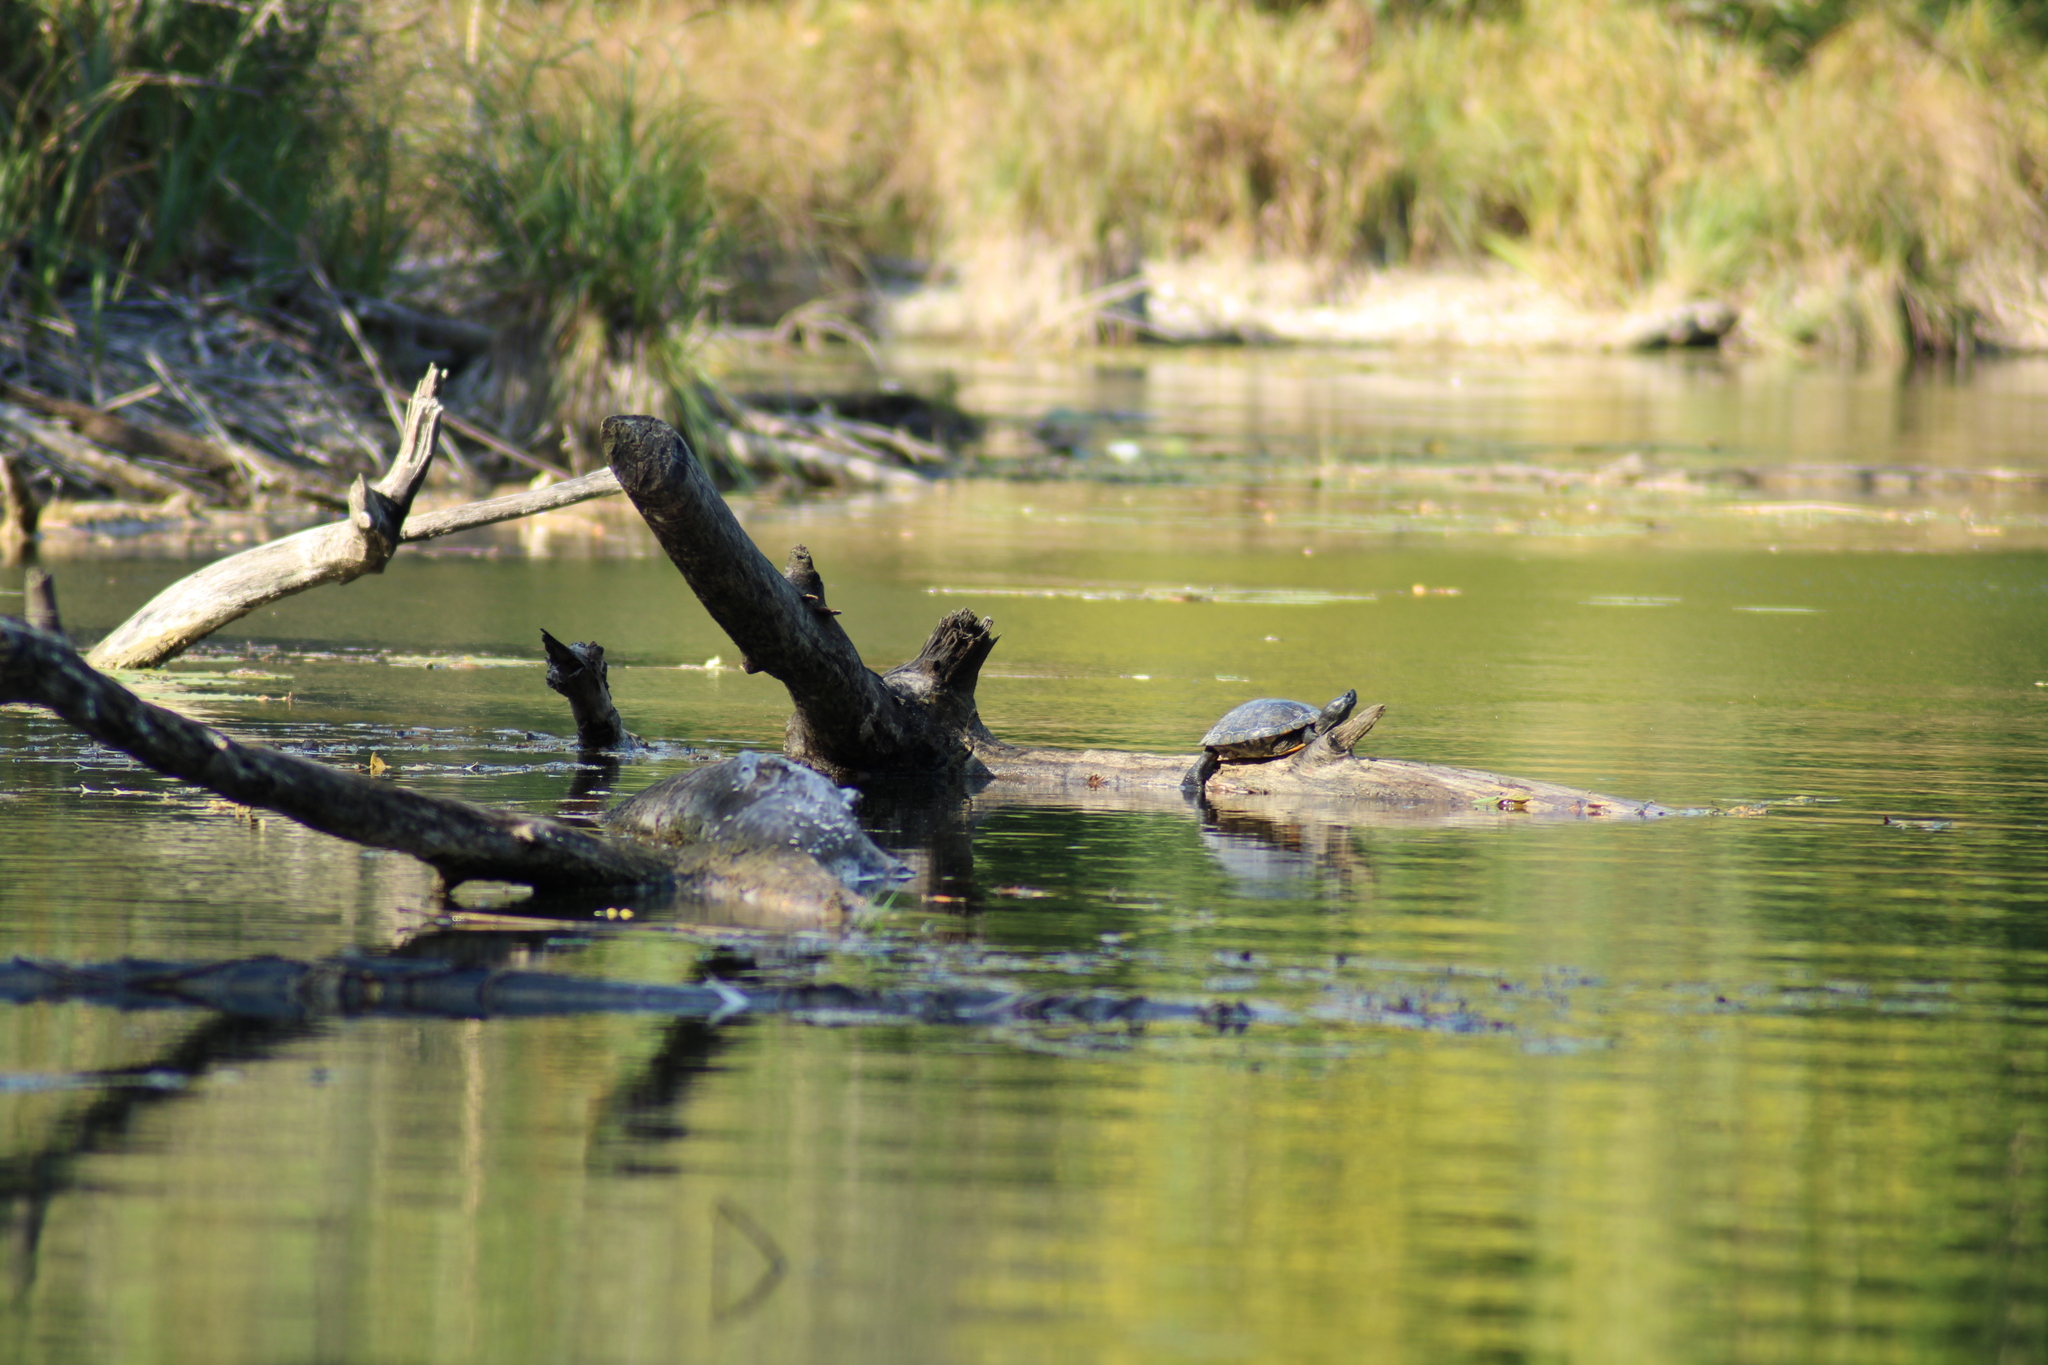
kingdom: Animalia
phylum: Chordata
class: Testudines
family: Emydidae
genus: Trachemys
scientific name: Trachemys scripta
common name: Slider
